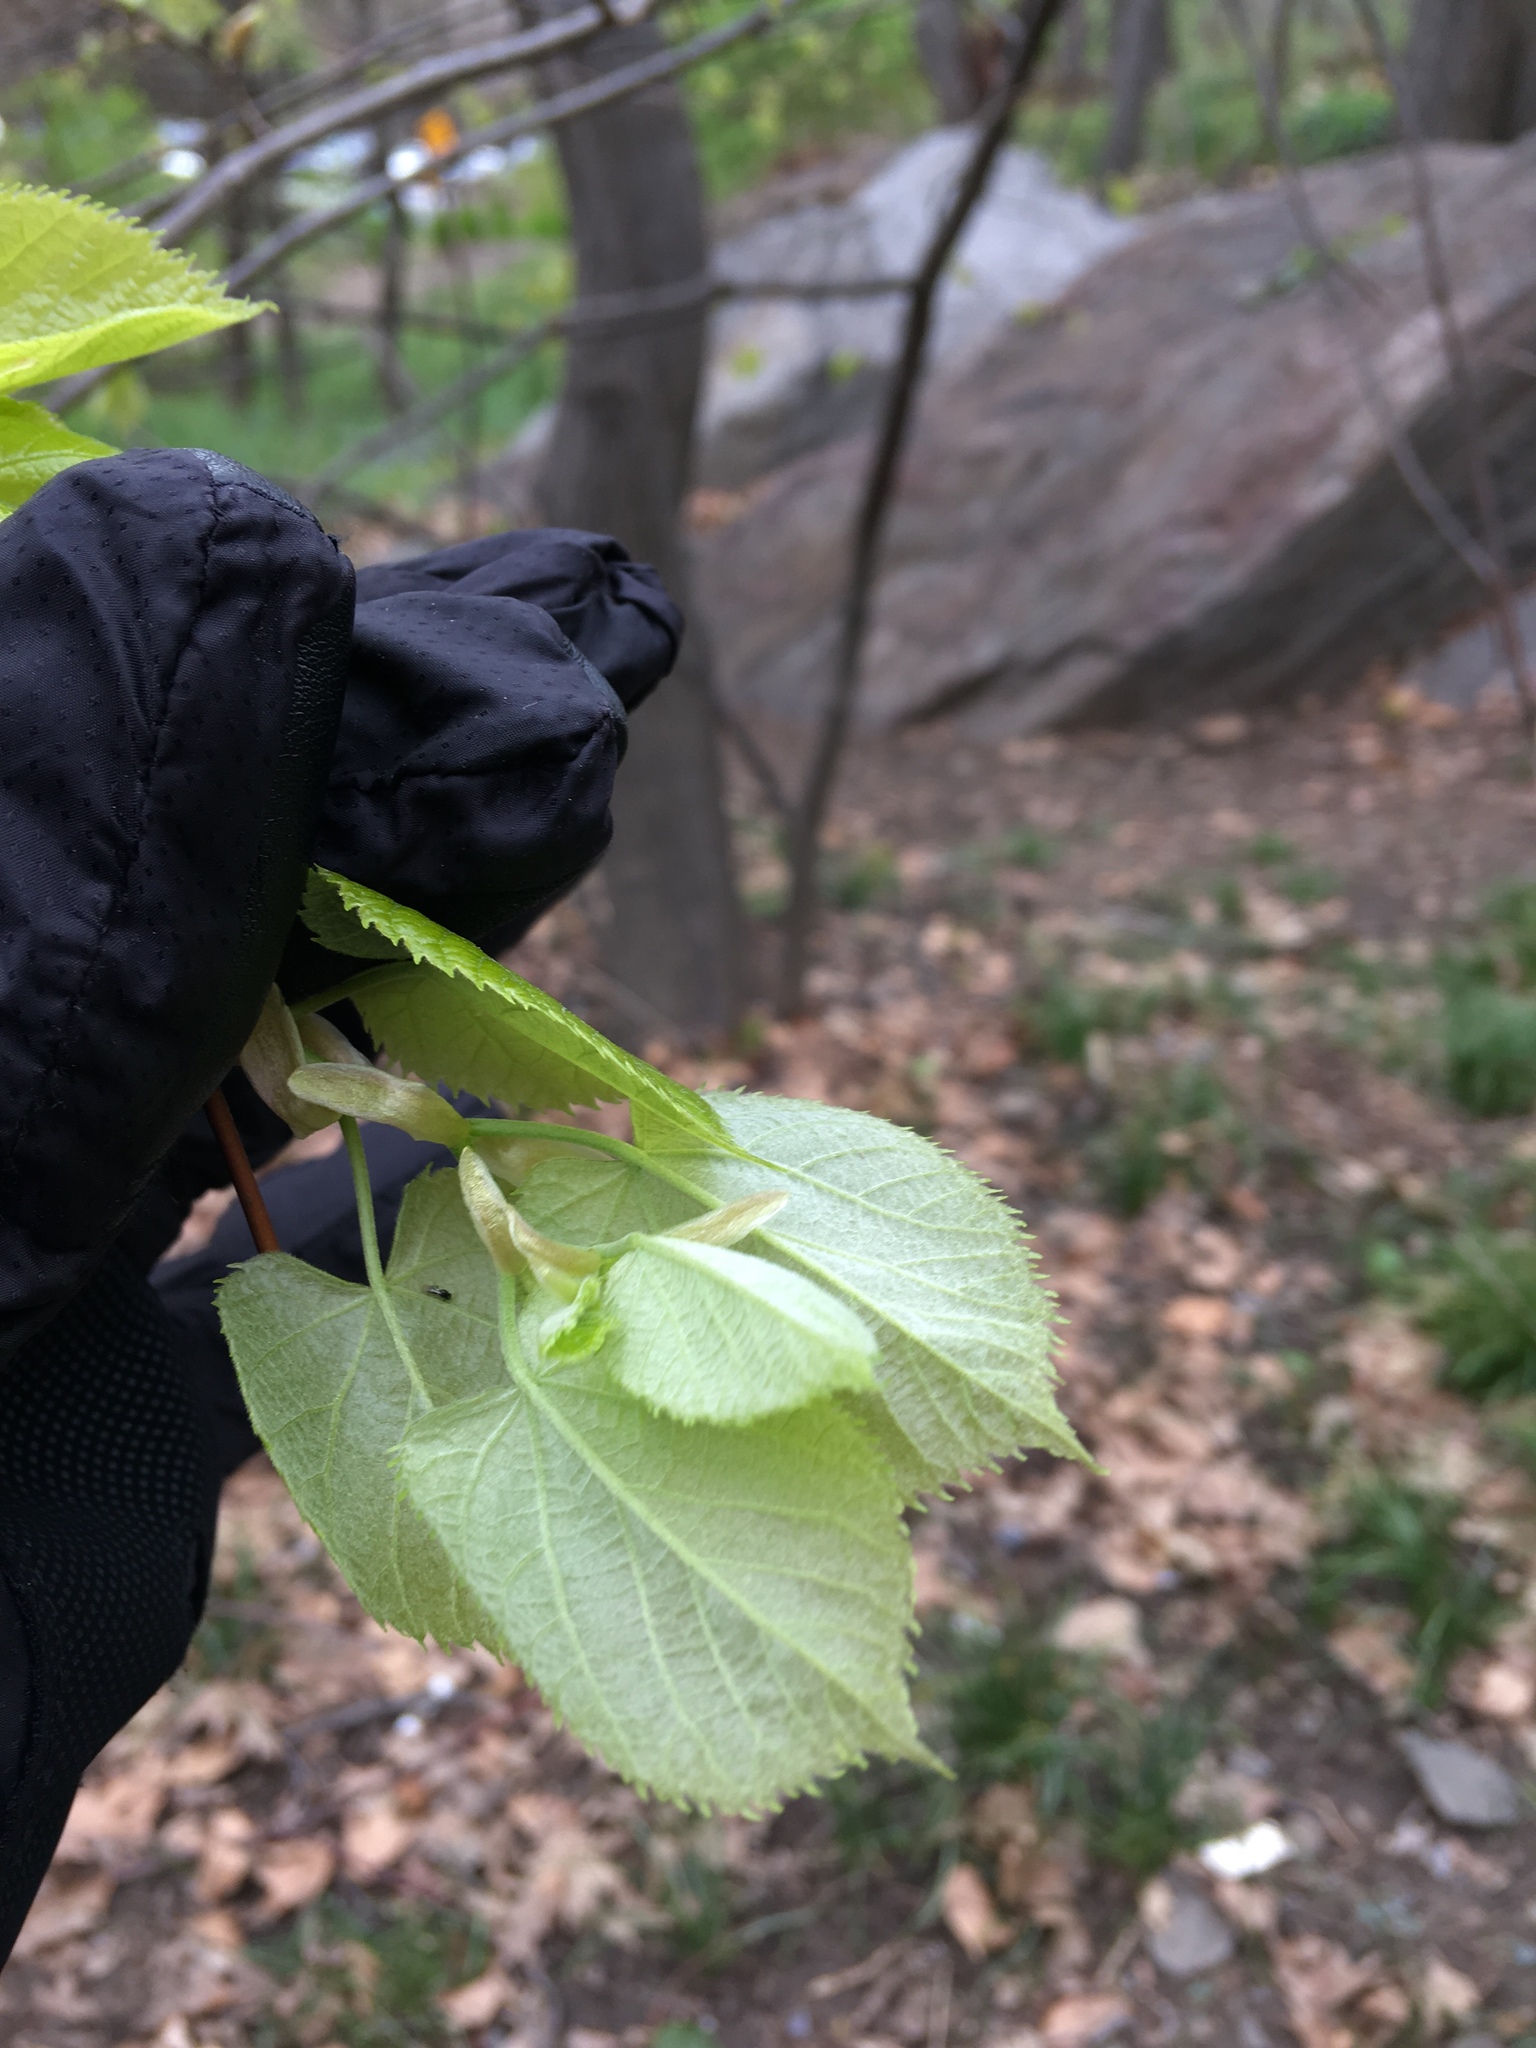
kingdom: Plantae
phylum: Tracheophyta
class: Magnoliopsida
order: Malvales
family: Malvaceae
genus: Tilia
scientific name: Tilia cordata
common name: Small-leaved lime
